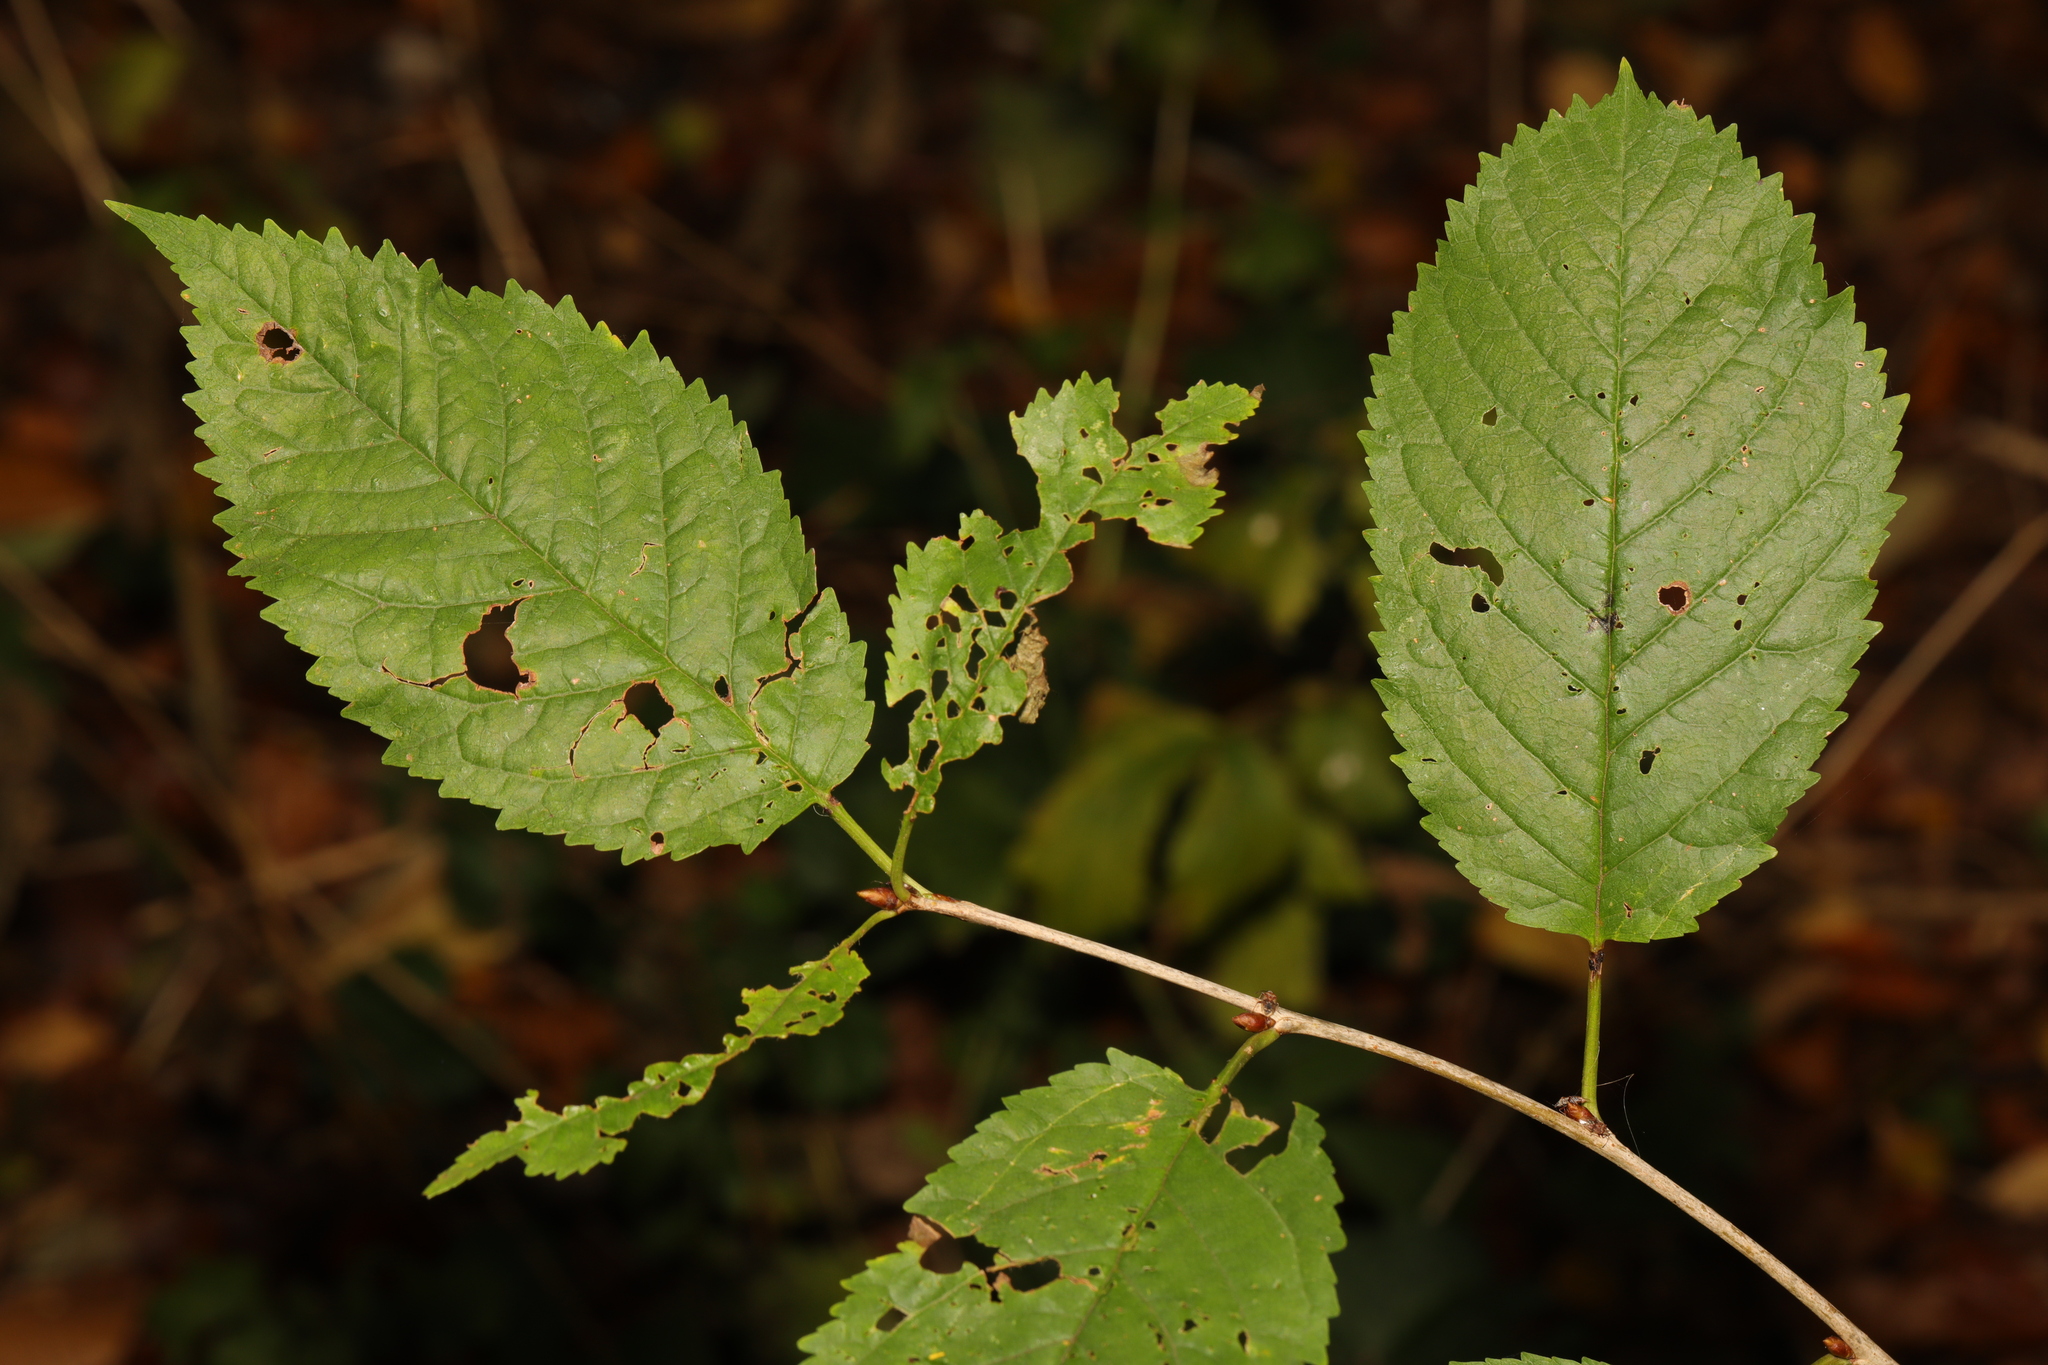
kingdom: Plantae
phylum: Tracheophyta
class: Magnoliopsida
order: Rosales
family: Rosaceae
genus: Prunus
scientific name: Prunus avium
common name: Sweet cherry
